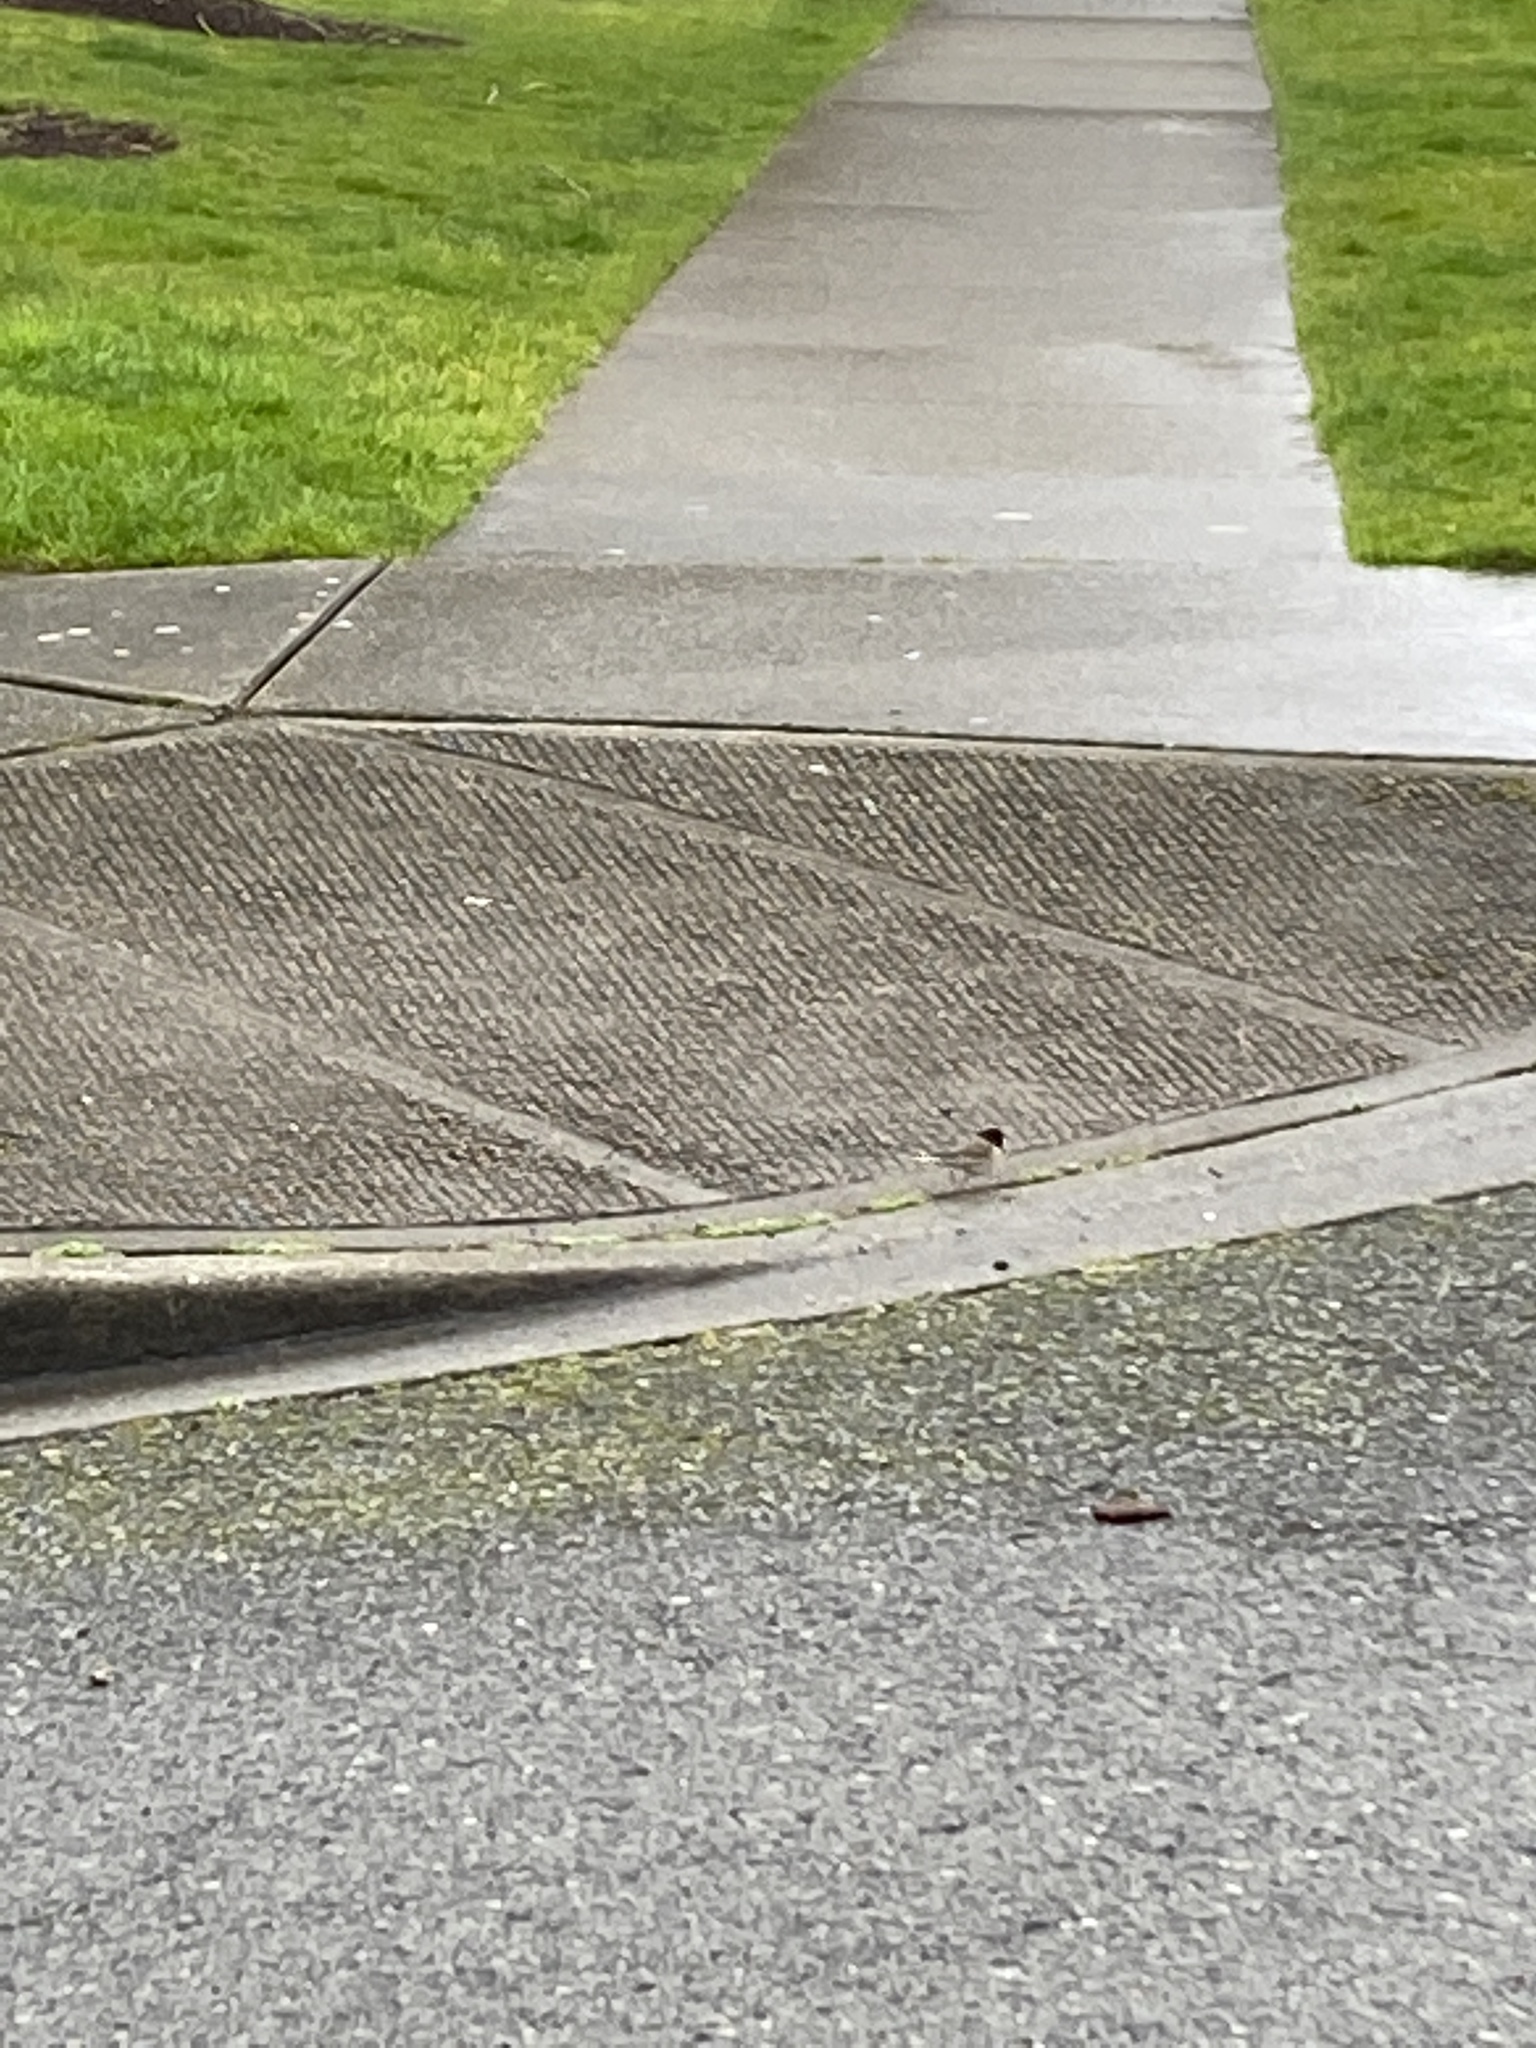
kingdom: Animalia
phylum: Chordata
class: Aves
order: Passeriformes
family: Passerellidae
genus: Junco
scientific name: Junco hyemalis
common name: Dark-eyed junco
